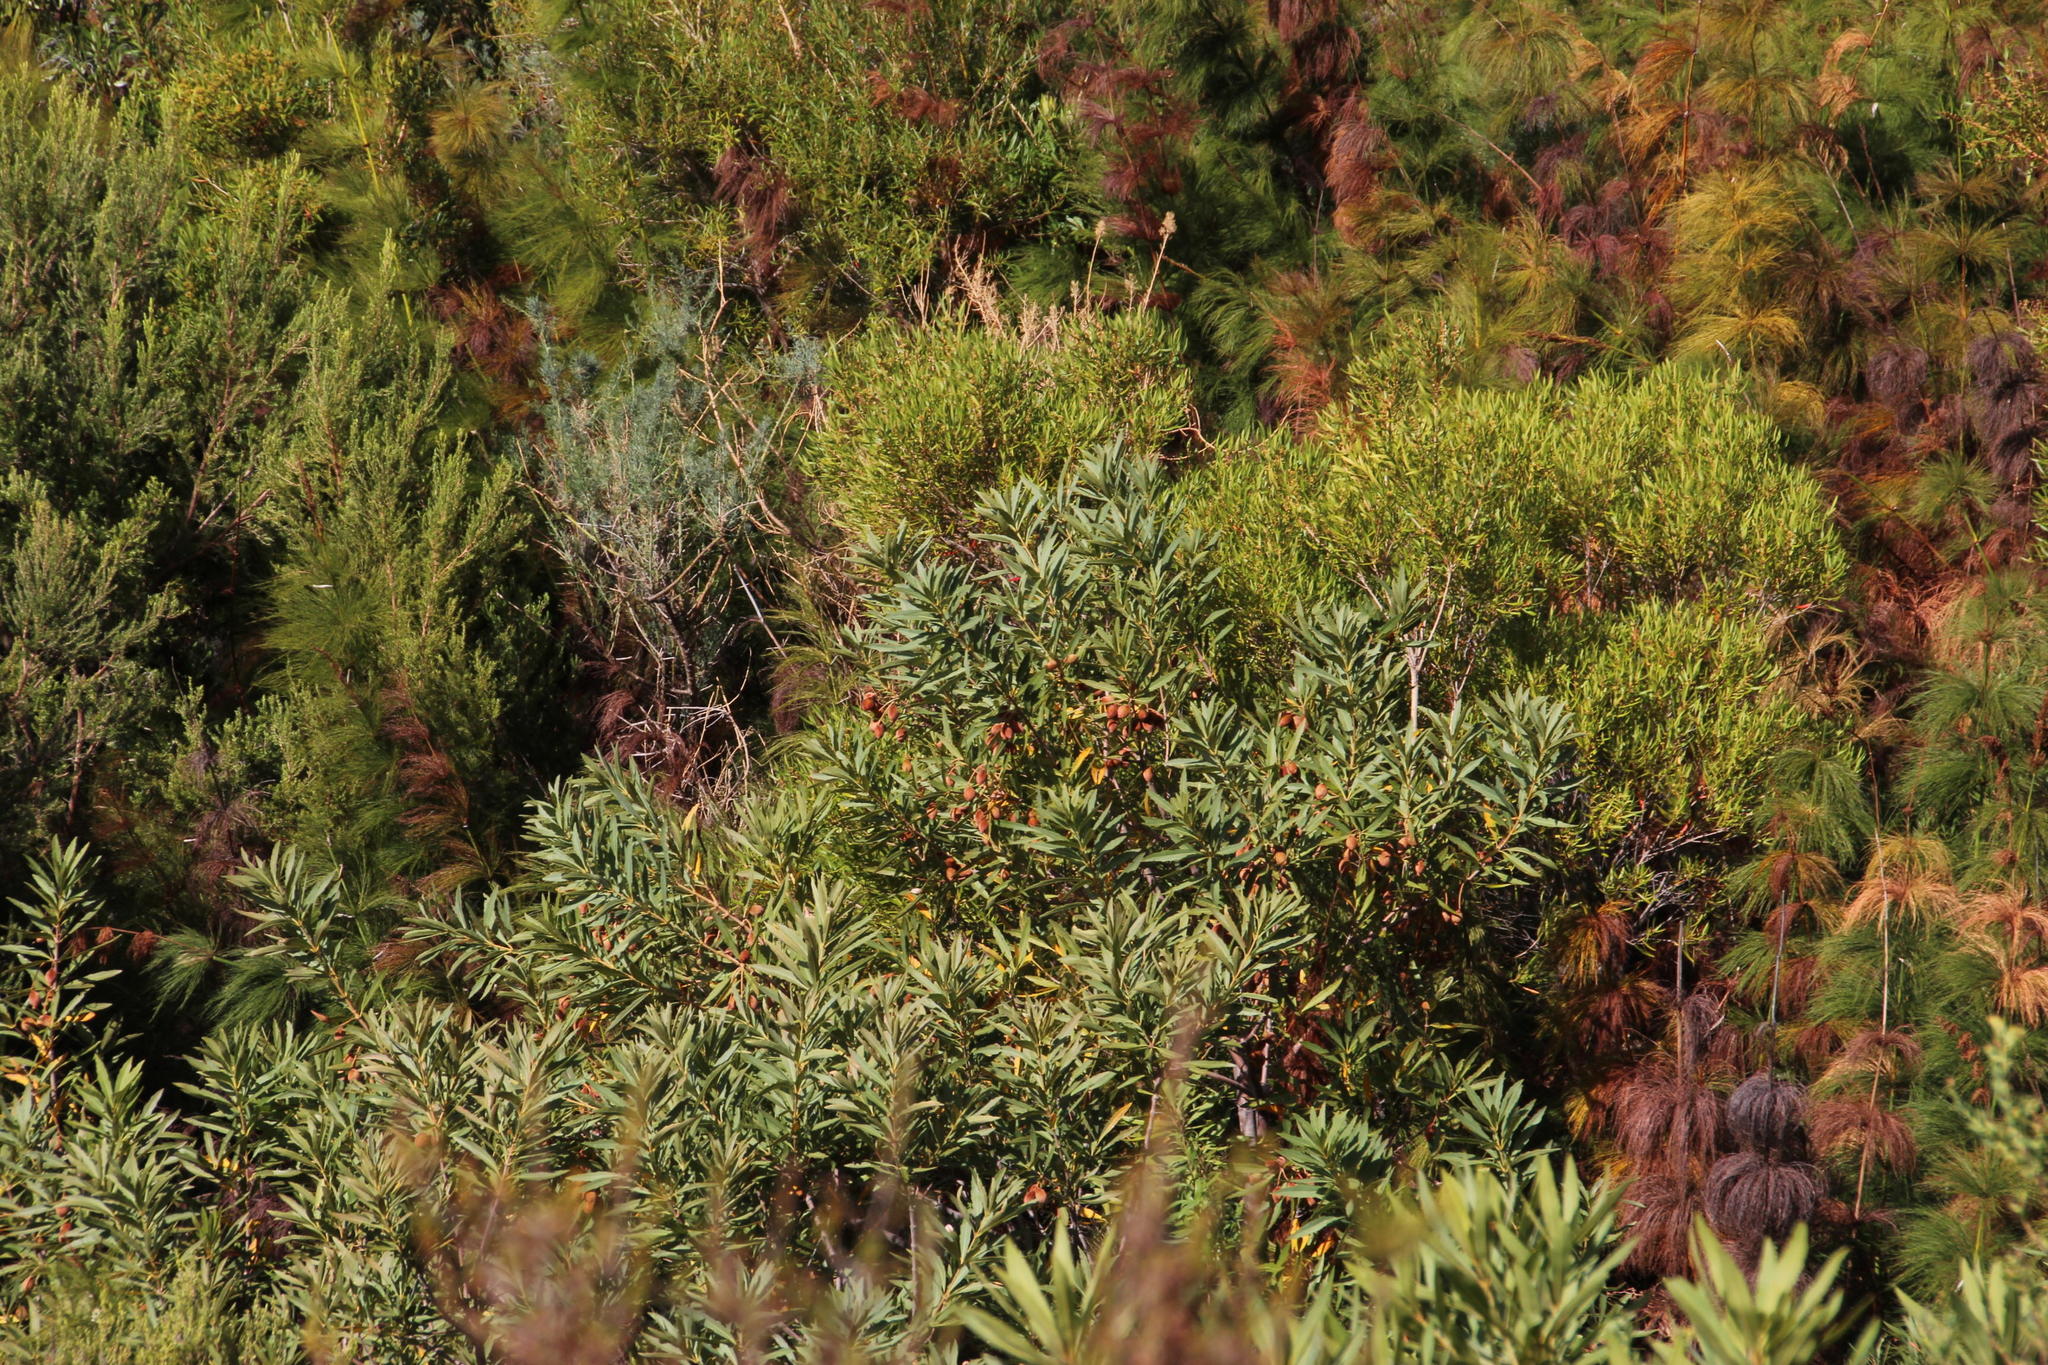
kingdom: Plantae
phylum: Tracheophyta
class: Magnoliopsida
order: Proteales
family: Proteaceae
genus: Brabejum
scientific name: Brabejum stellatifolium
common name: Wild almond
